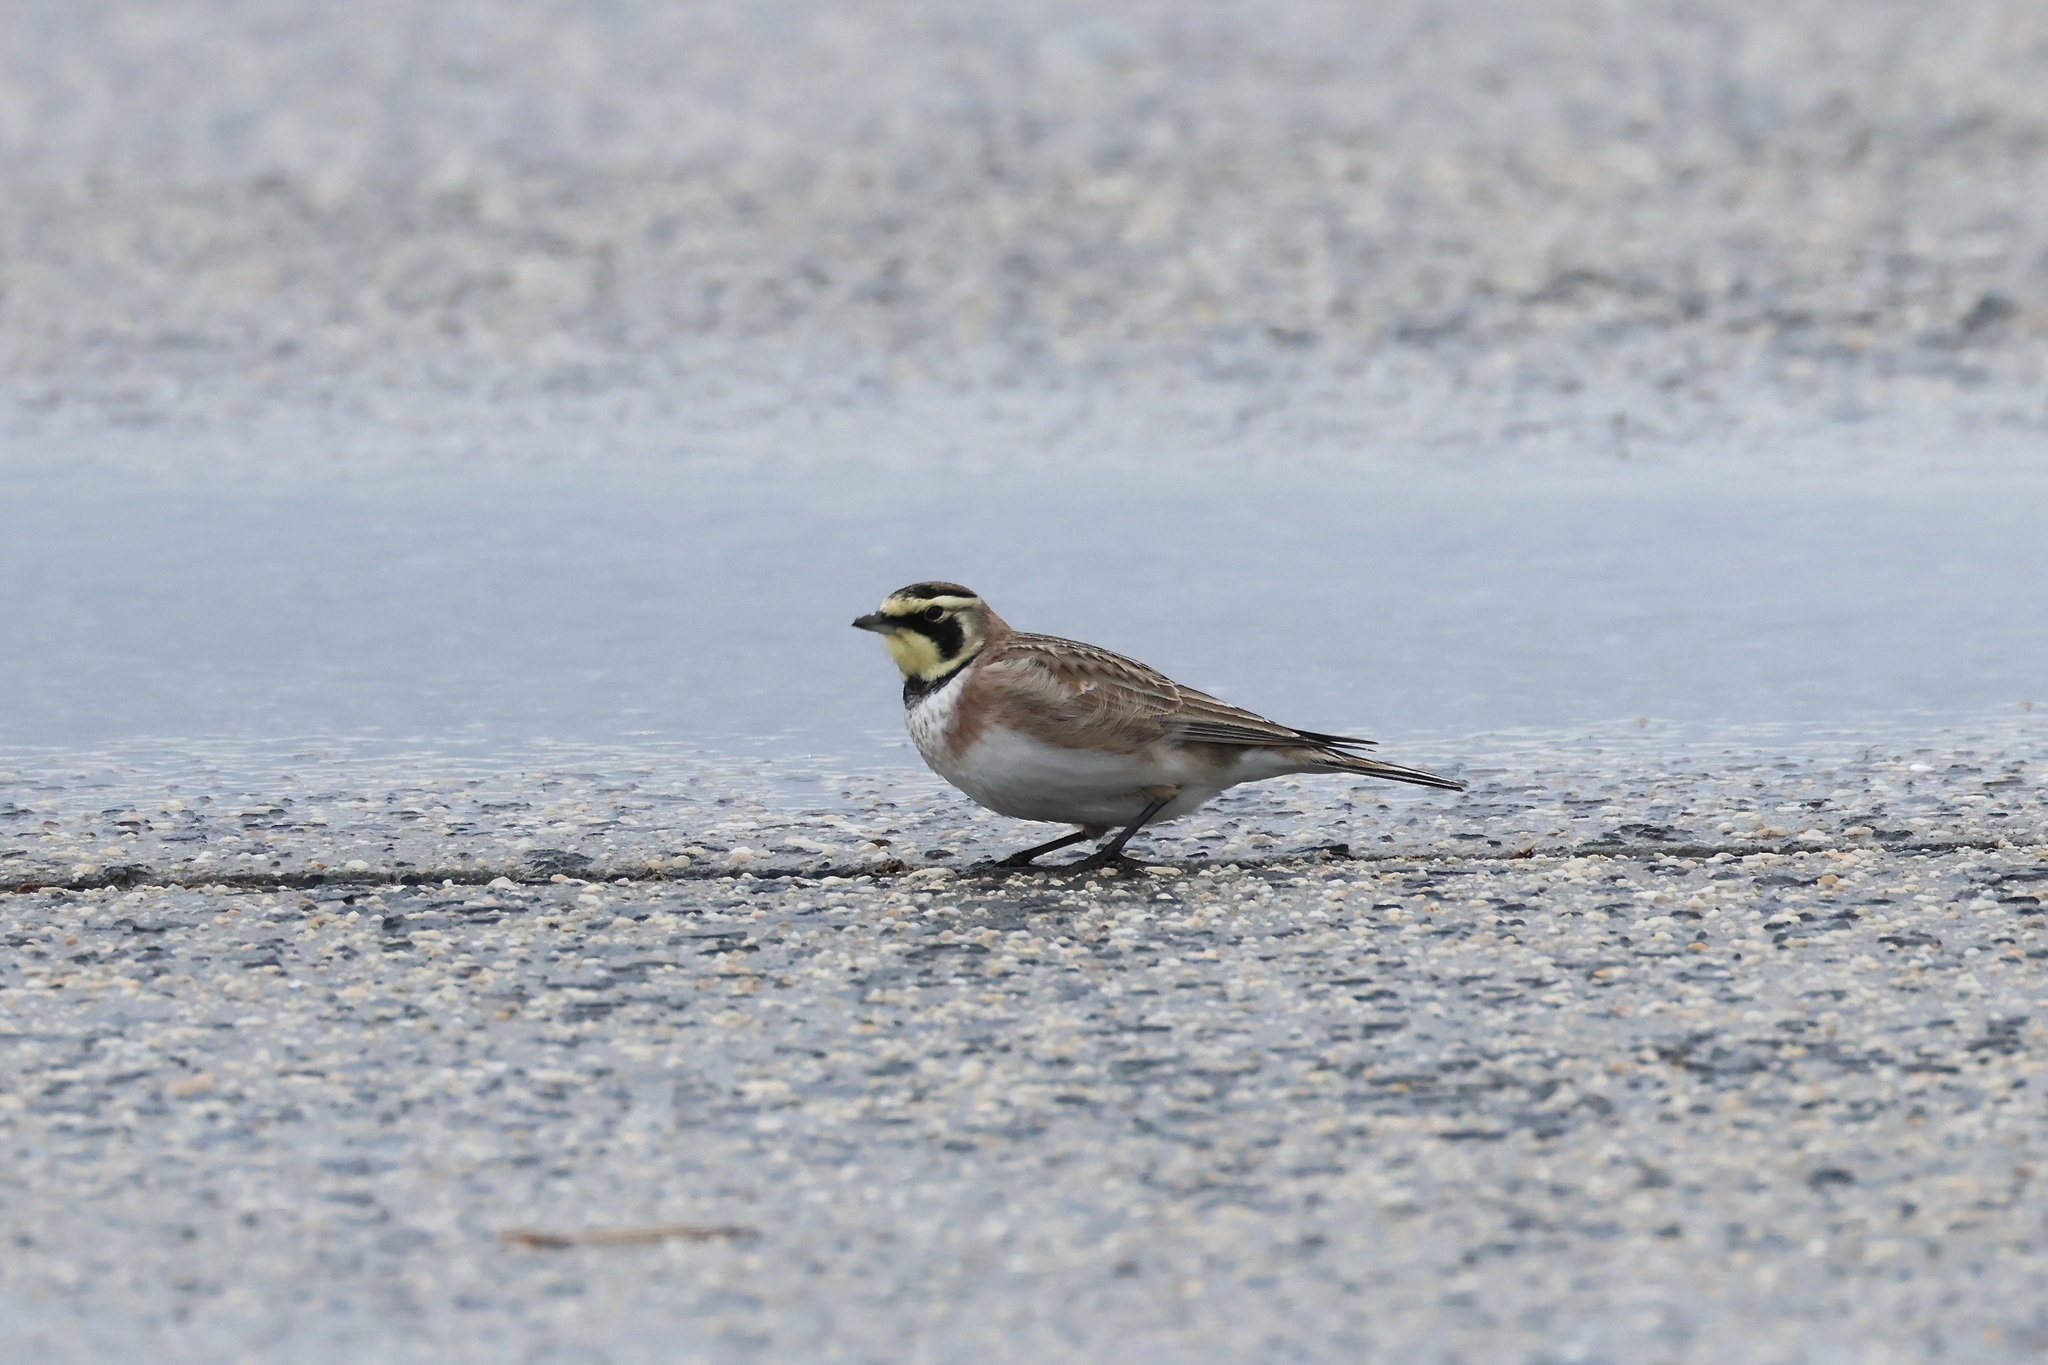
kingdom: Animalia
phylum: Chordata
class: Aves
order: Passeriformes
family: Alaudidae
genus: Eremophila
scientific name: Eremophila alpestris
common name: Horned lark
